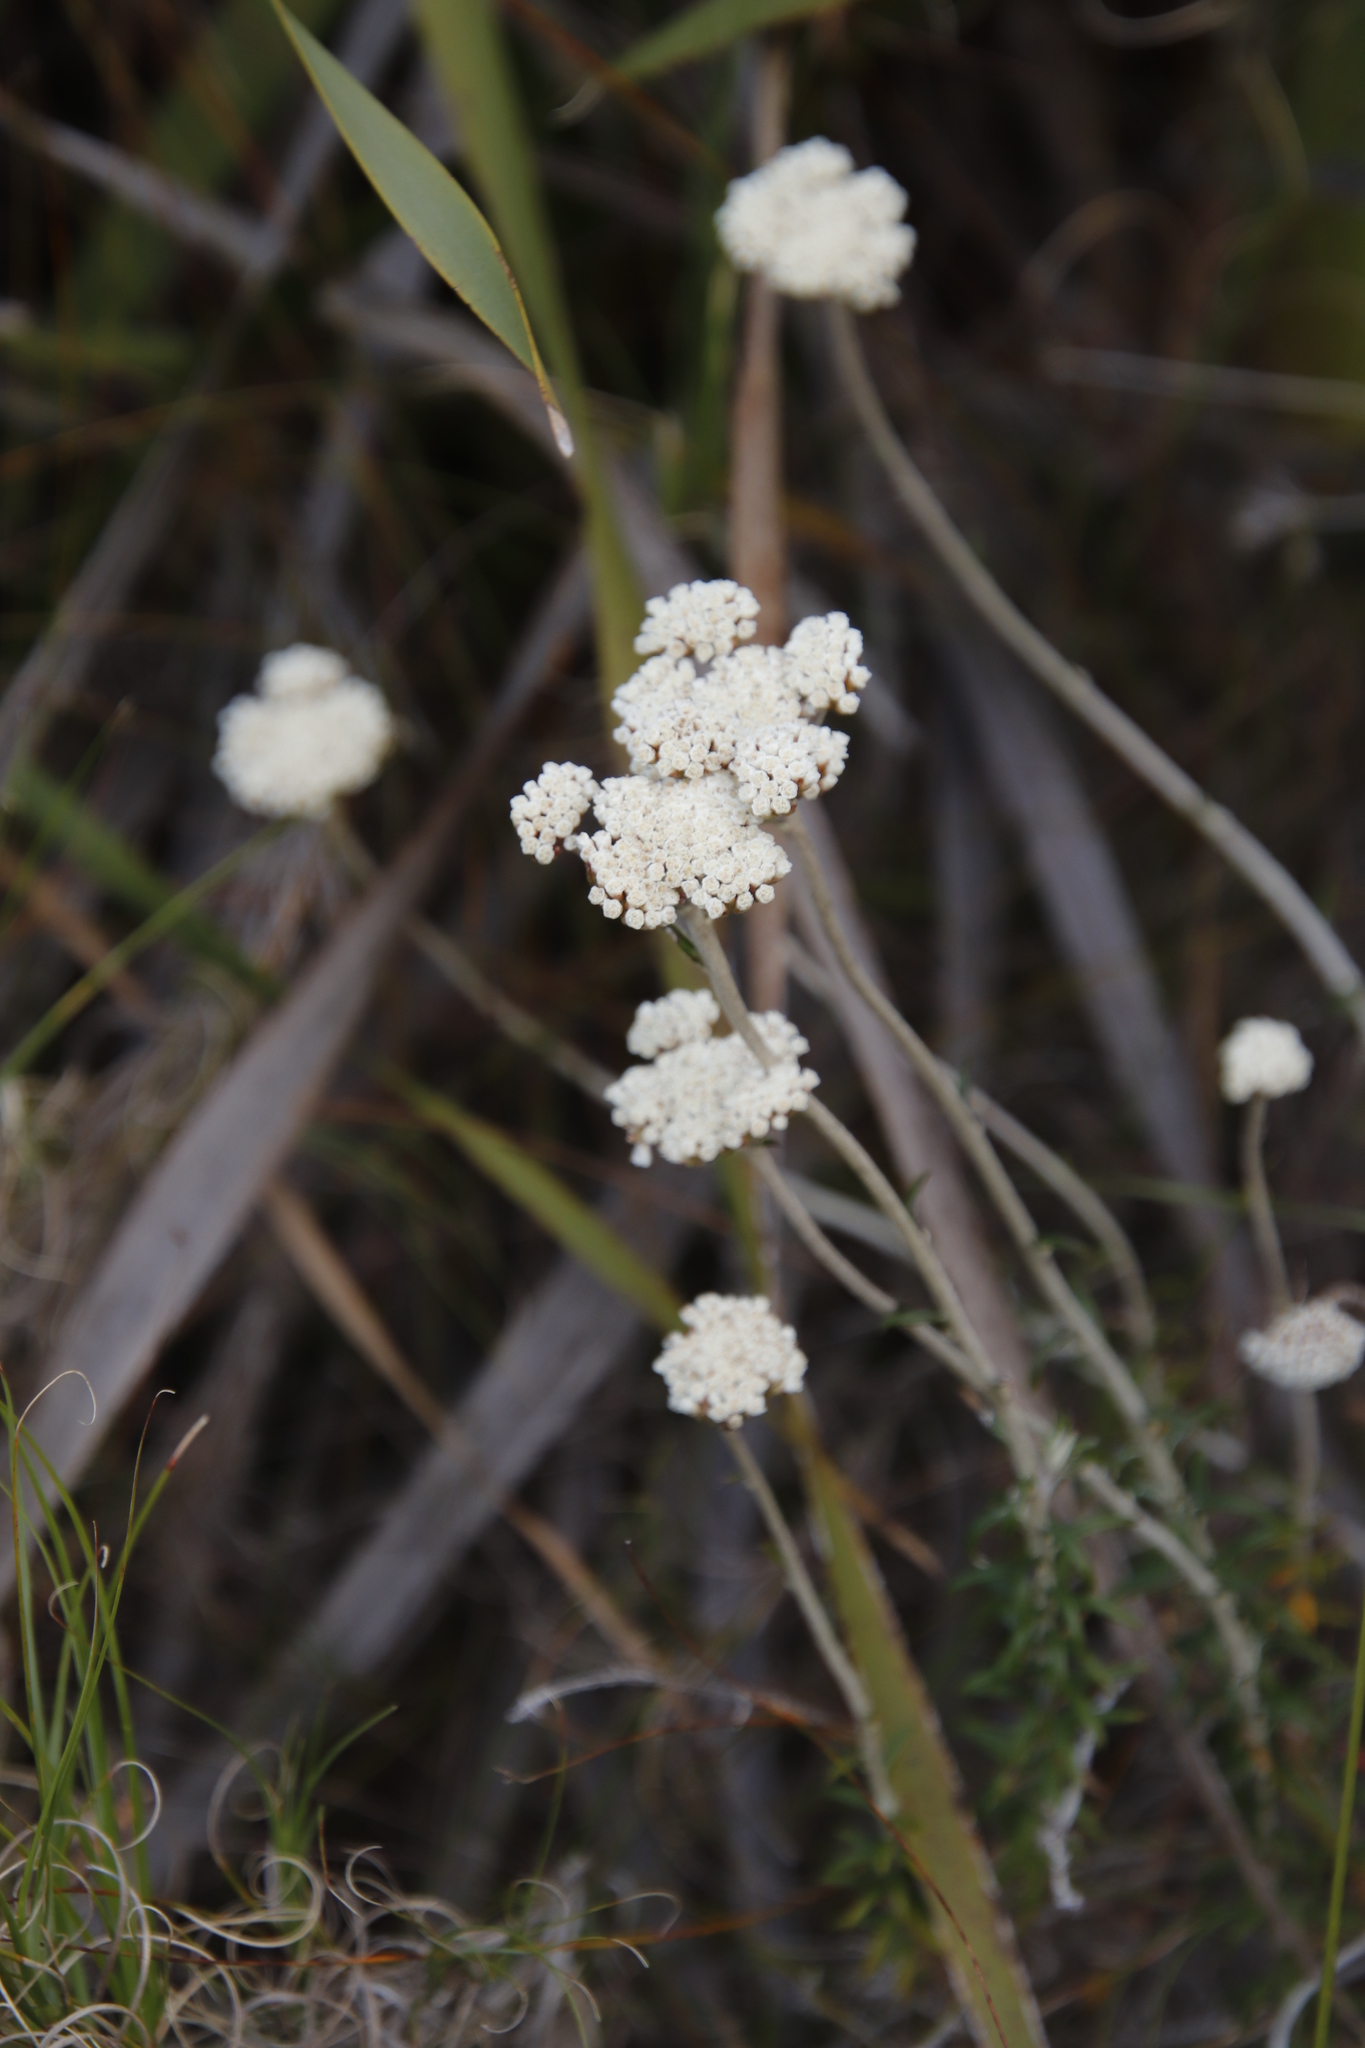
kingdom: Plantae
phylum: Tracheophyta
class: Magnoliopsida
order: Asterales
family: Asteraceae
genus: Anaxeton
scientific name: Anaxeton arborescens
